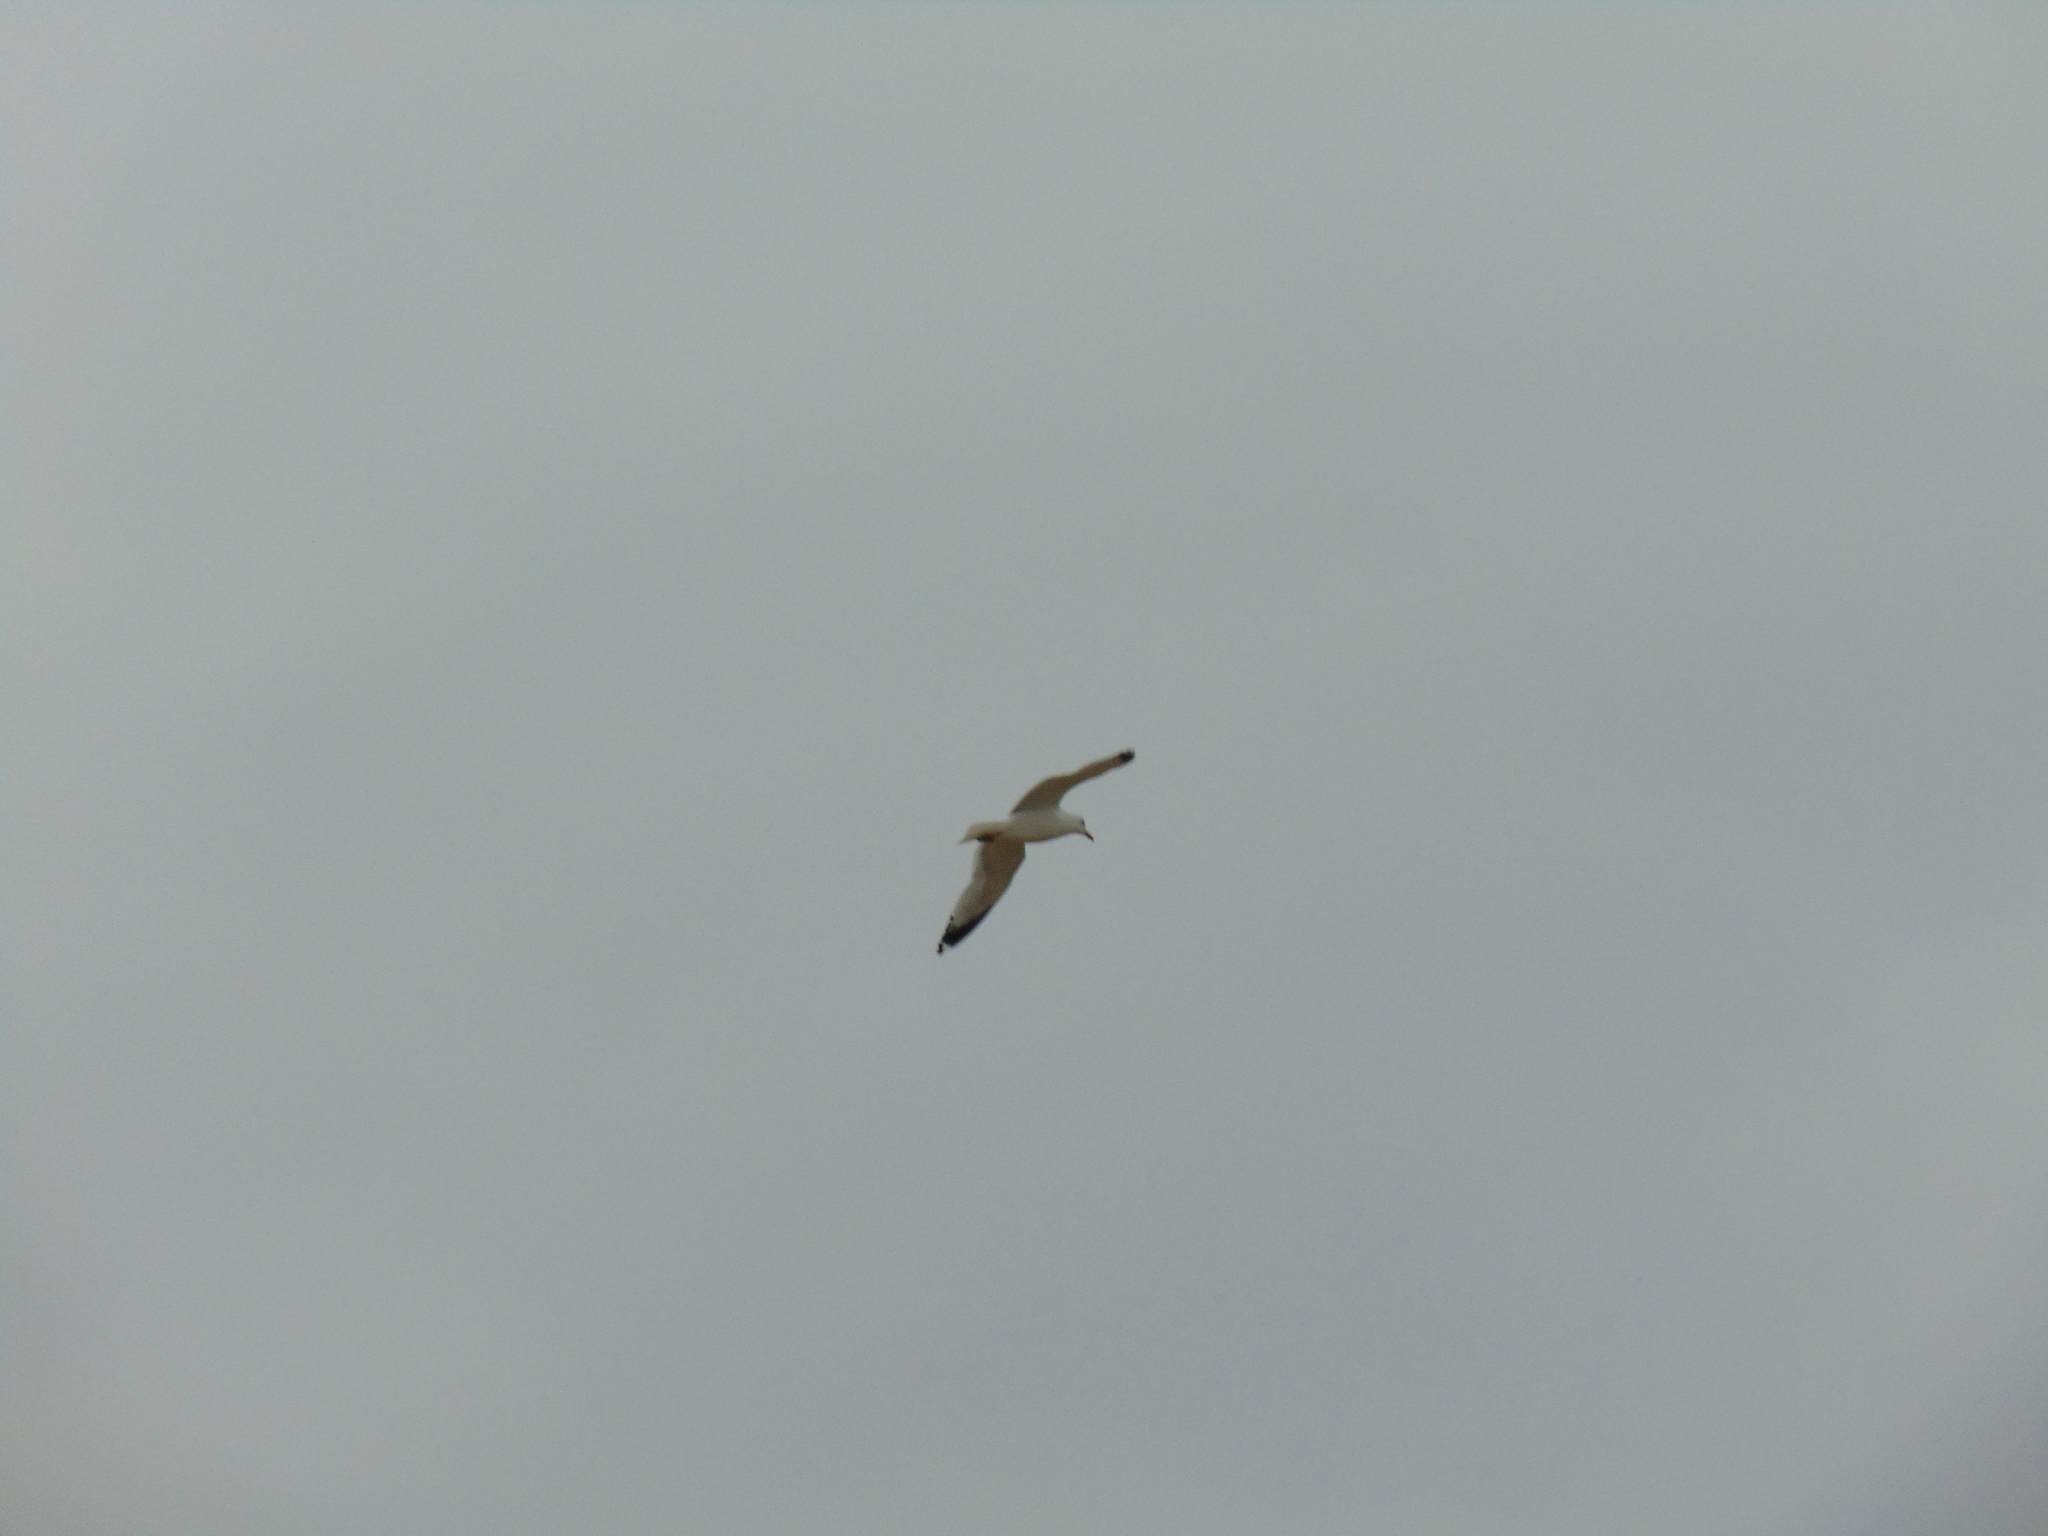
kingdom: Animalia
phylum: Chordata
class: Aves
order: Charadriiformes
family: Laridae
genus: Larus
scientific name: Larus delawarensis
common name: Ring-billed gull
